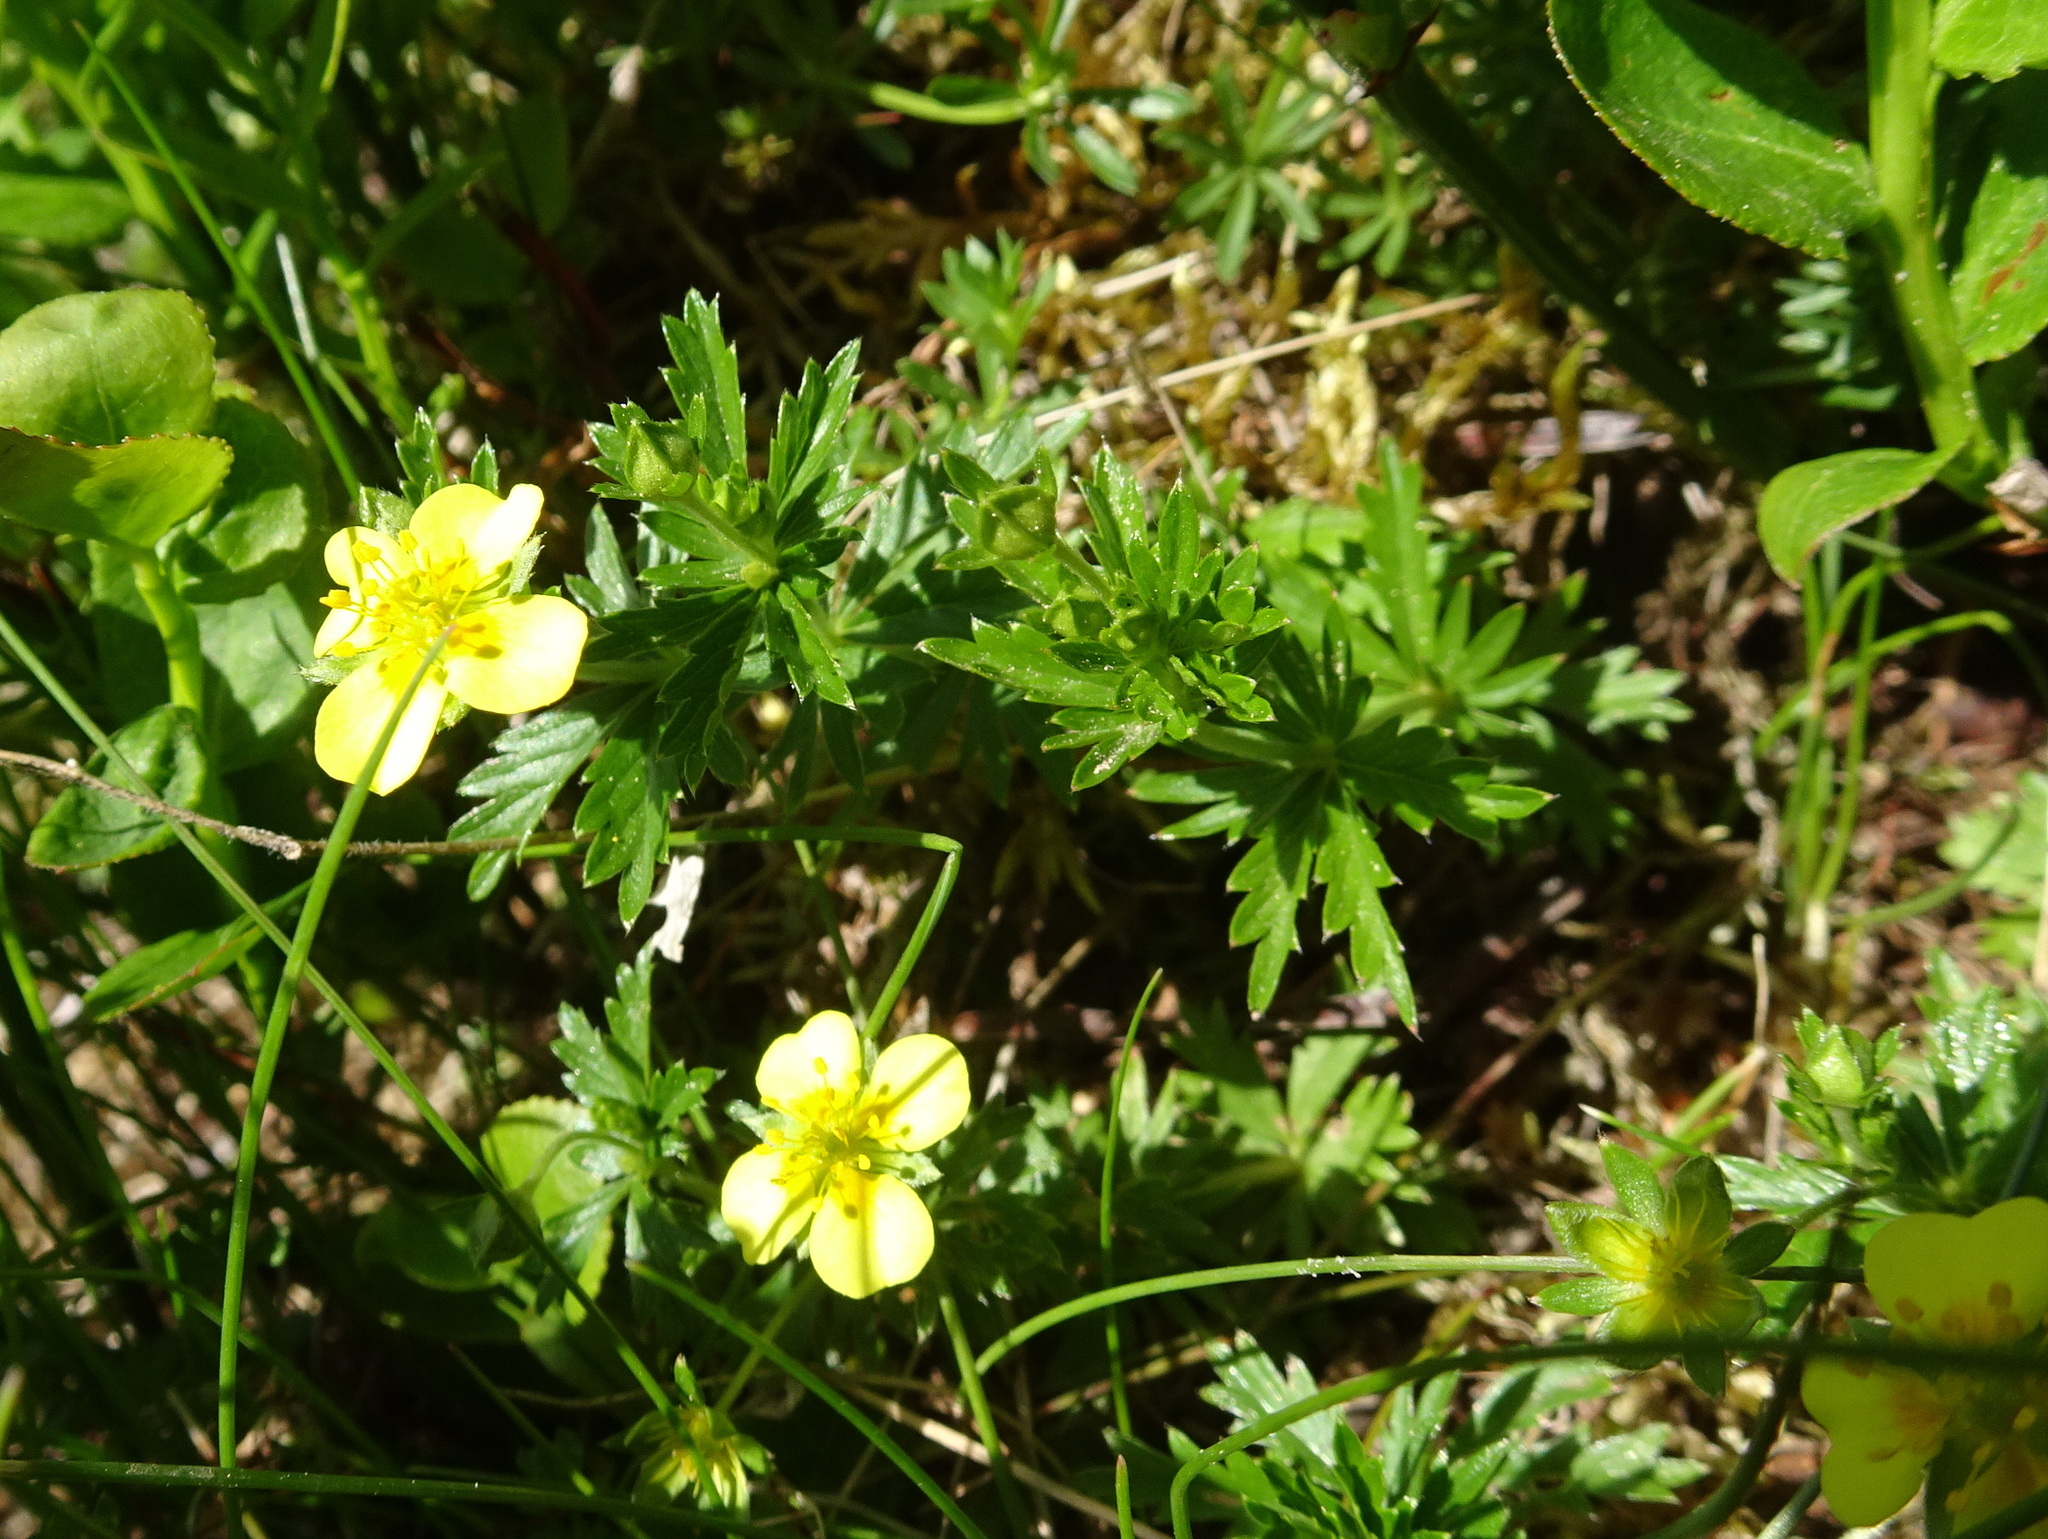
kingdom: Plantae
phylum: Tracheophyta
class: Magnoliopsida
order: Rosales
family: Rosaceae
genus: Potentilla
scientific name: Potentilla erecta
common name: Tormentil
